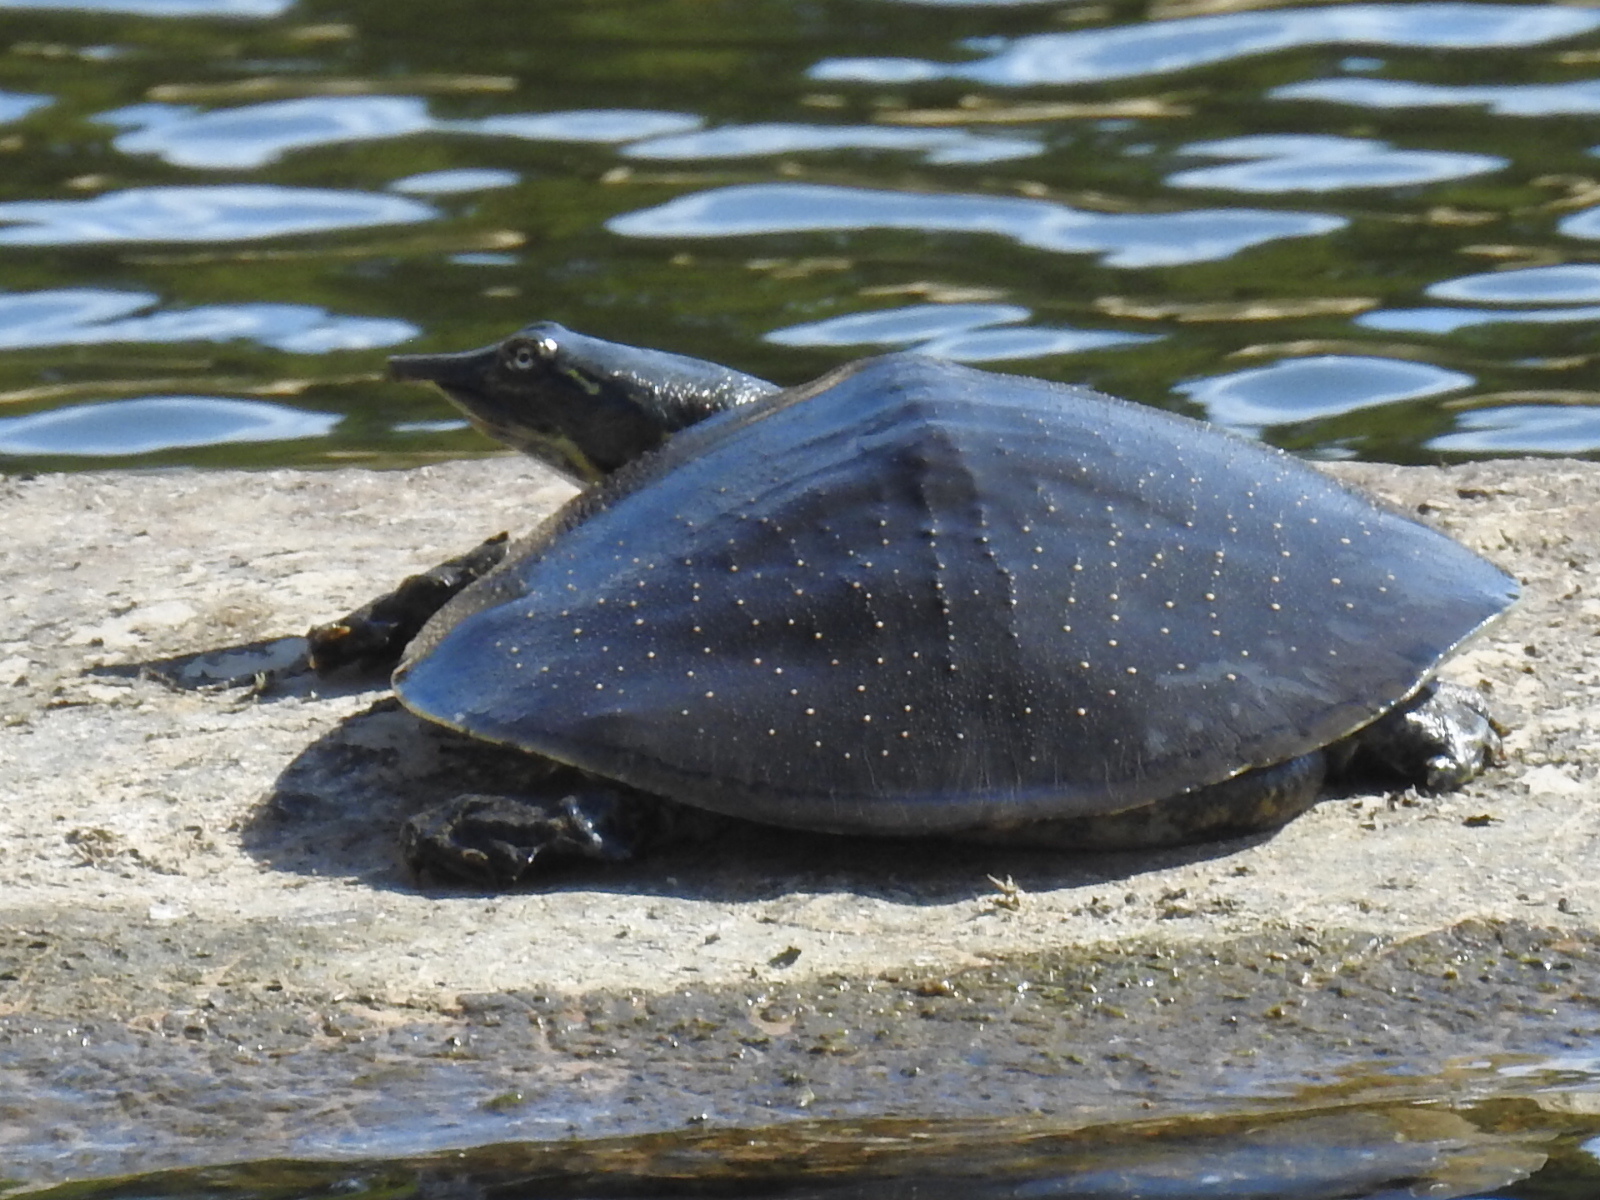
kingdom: Animalia
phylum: Chordata
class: Testudines
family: Trionychidae
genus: Apalone
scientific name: Apalone spinifera
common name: Spiny softshell turtle
